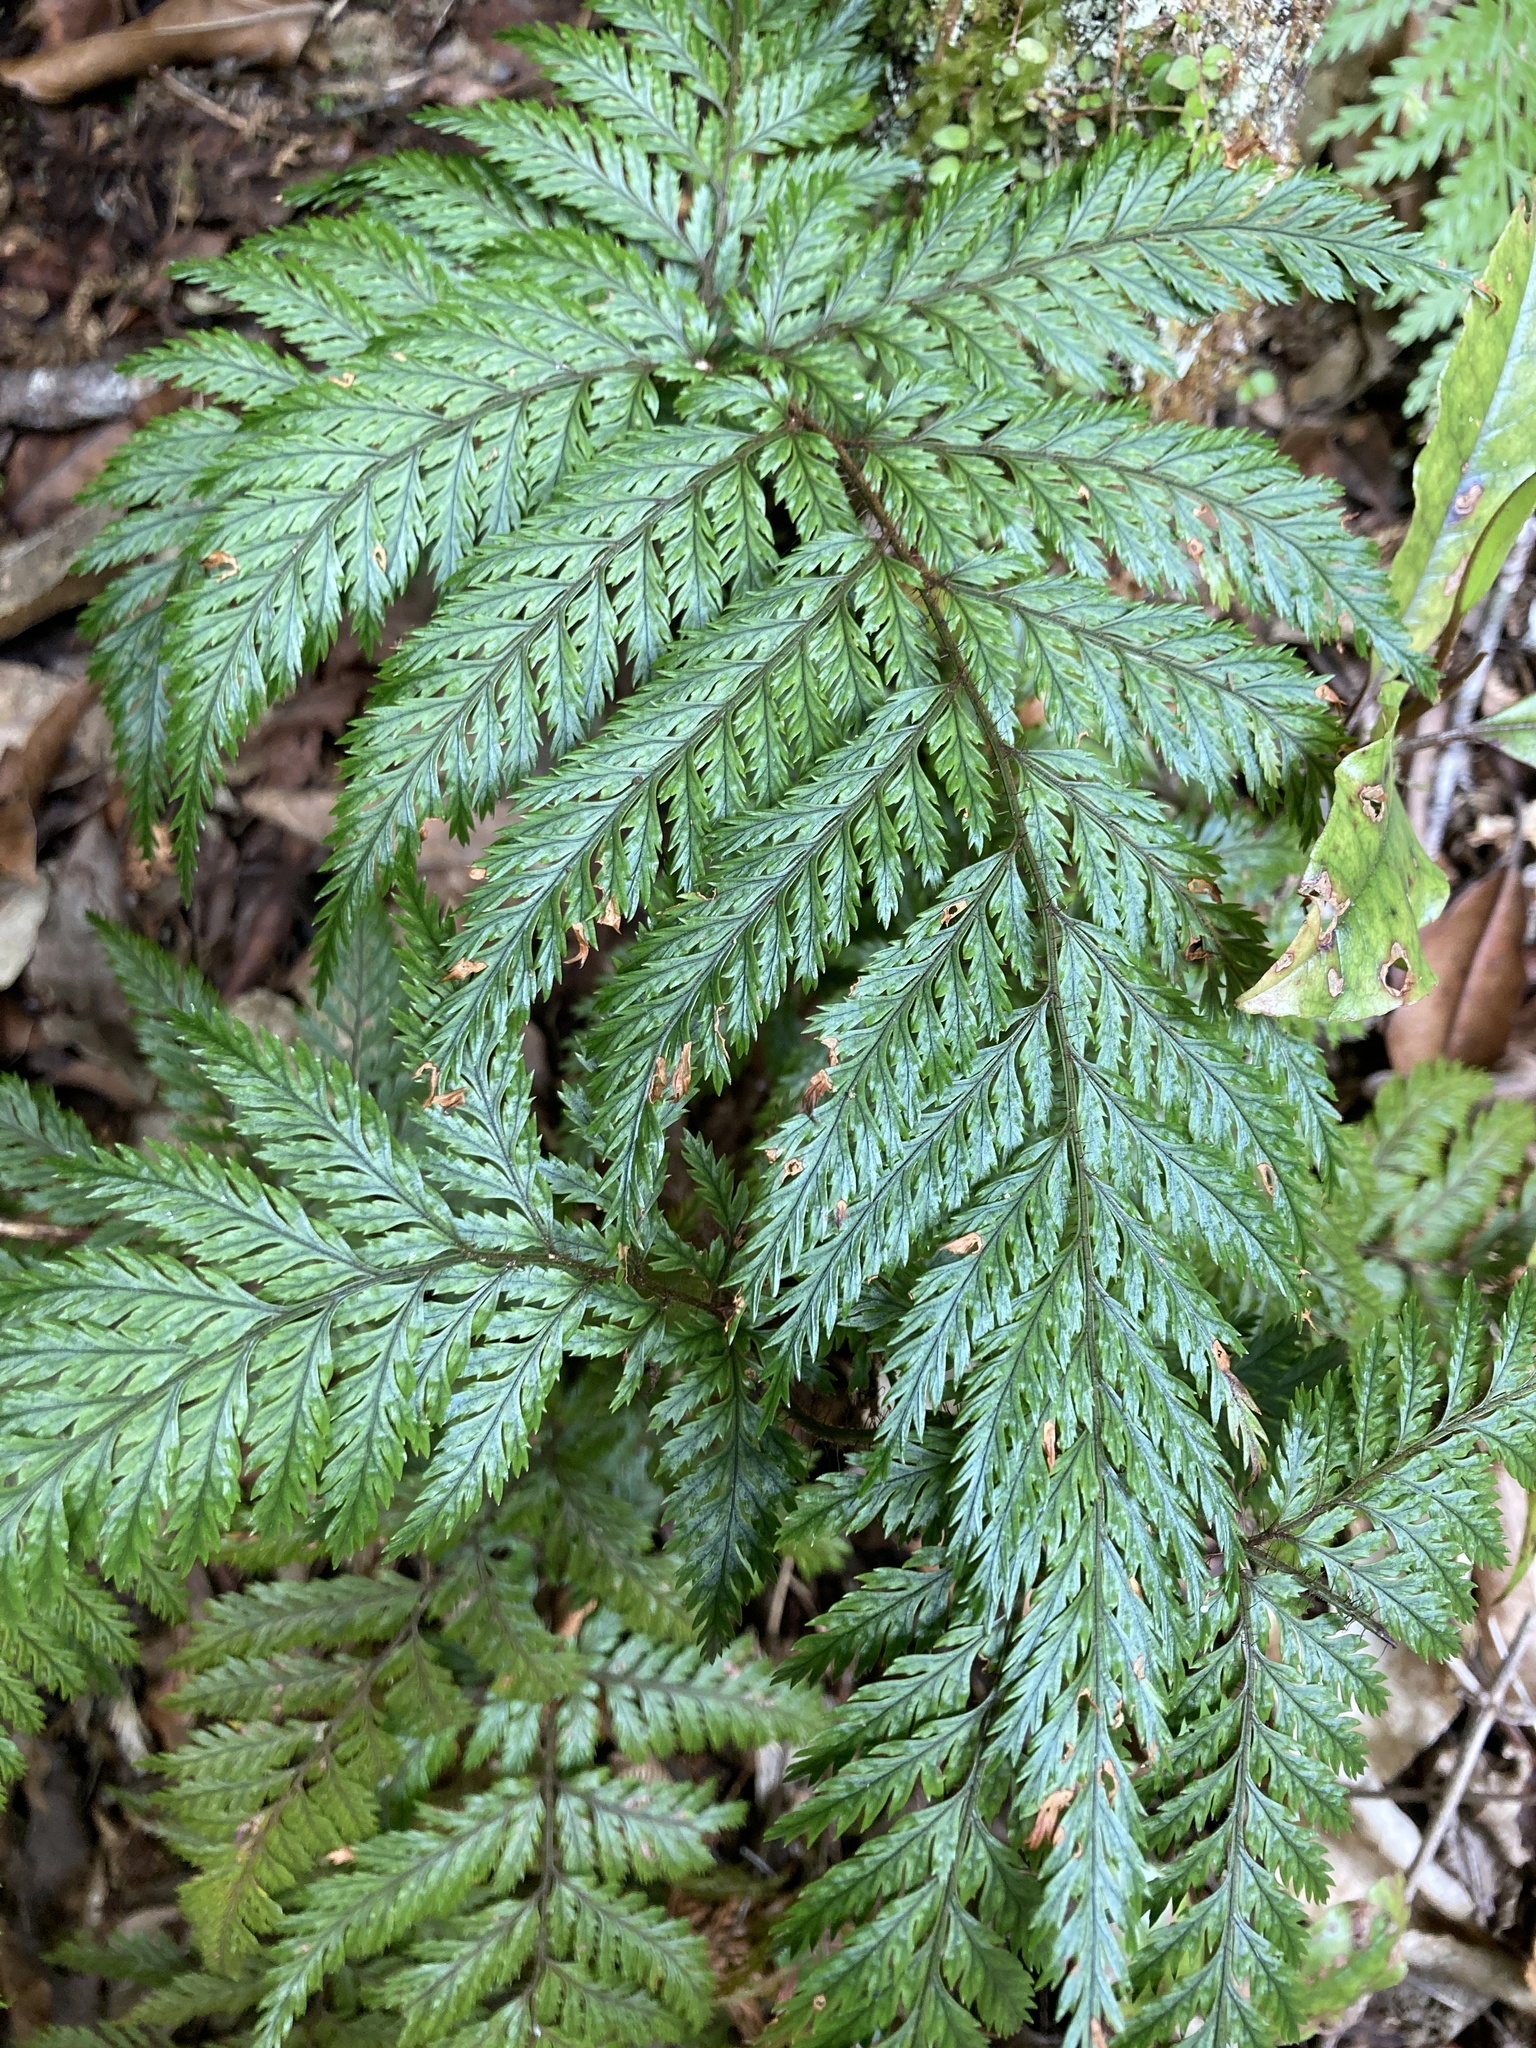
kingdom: Plantae
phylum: Tracheophyta
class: Polypodiopsida
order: Polypodiales
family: Dryopteridaceae
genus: Lastreopsis
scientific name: Lastreopsis hispida
